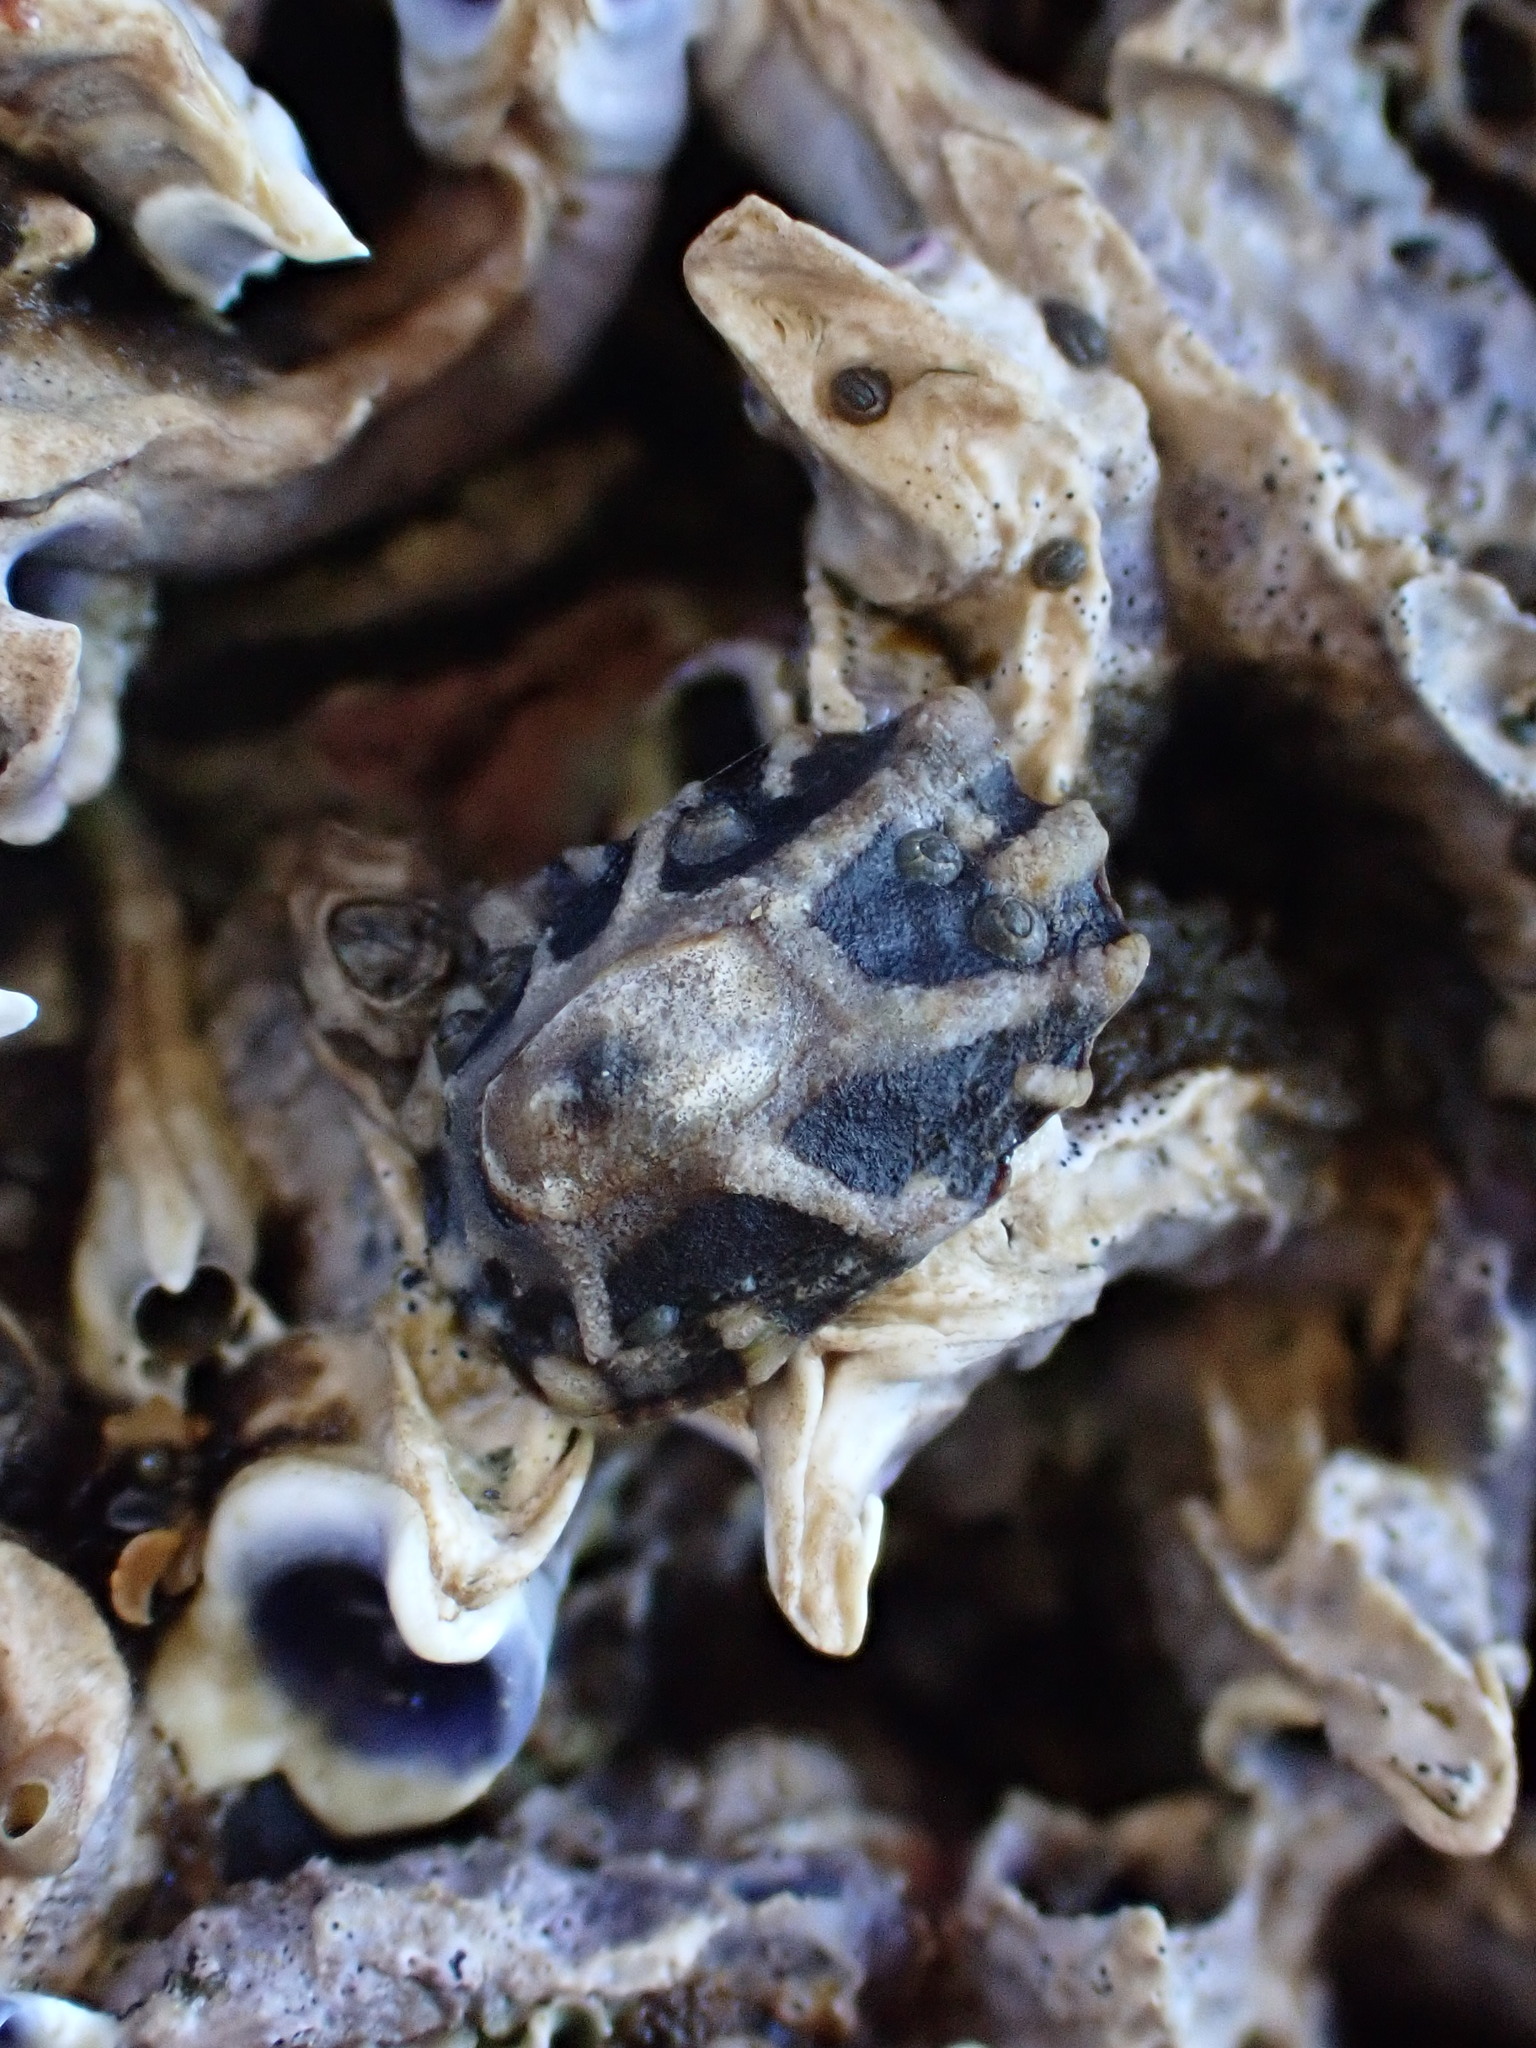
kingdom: Animalia
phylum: Mollusca
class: Gastropoda
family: Lottiidae
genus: Patelloida
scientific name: Patelloida corticata
